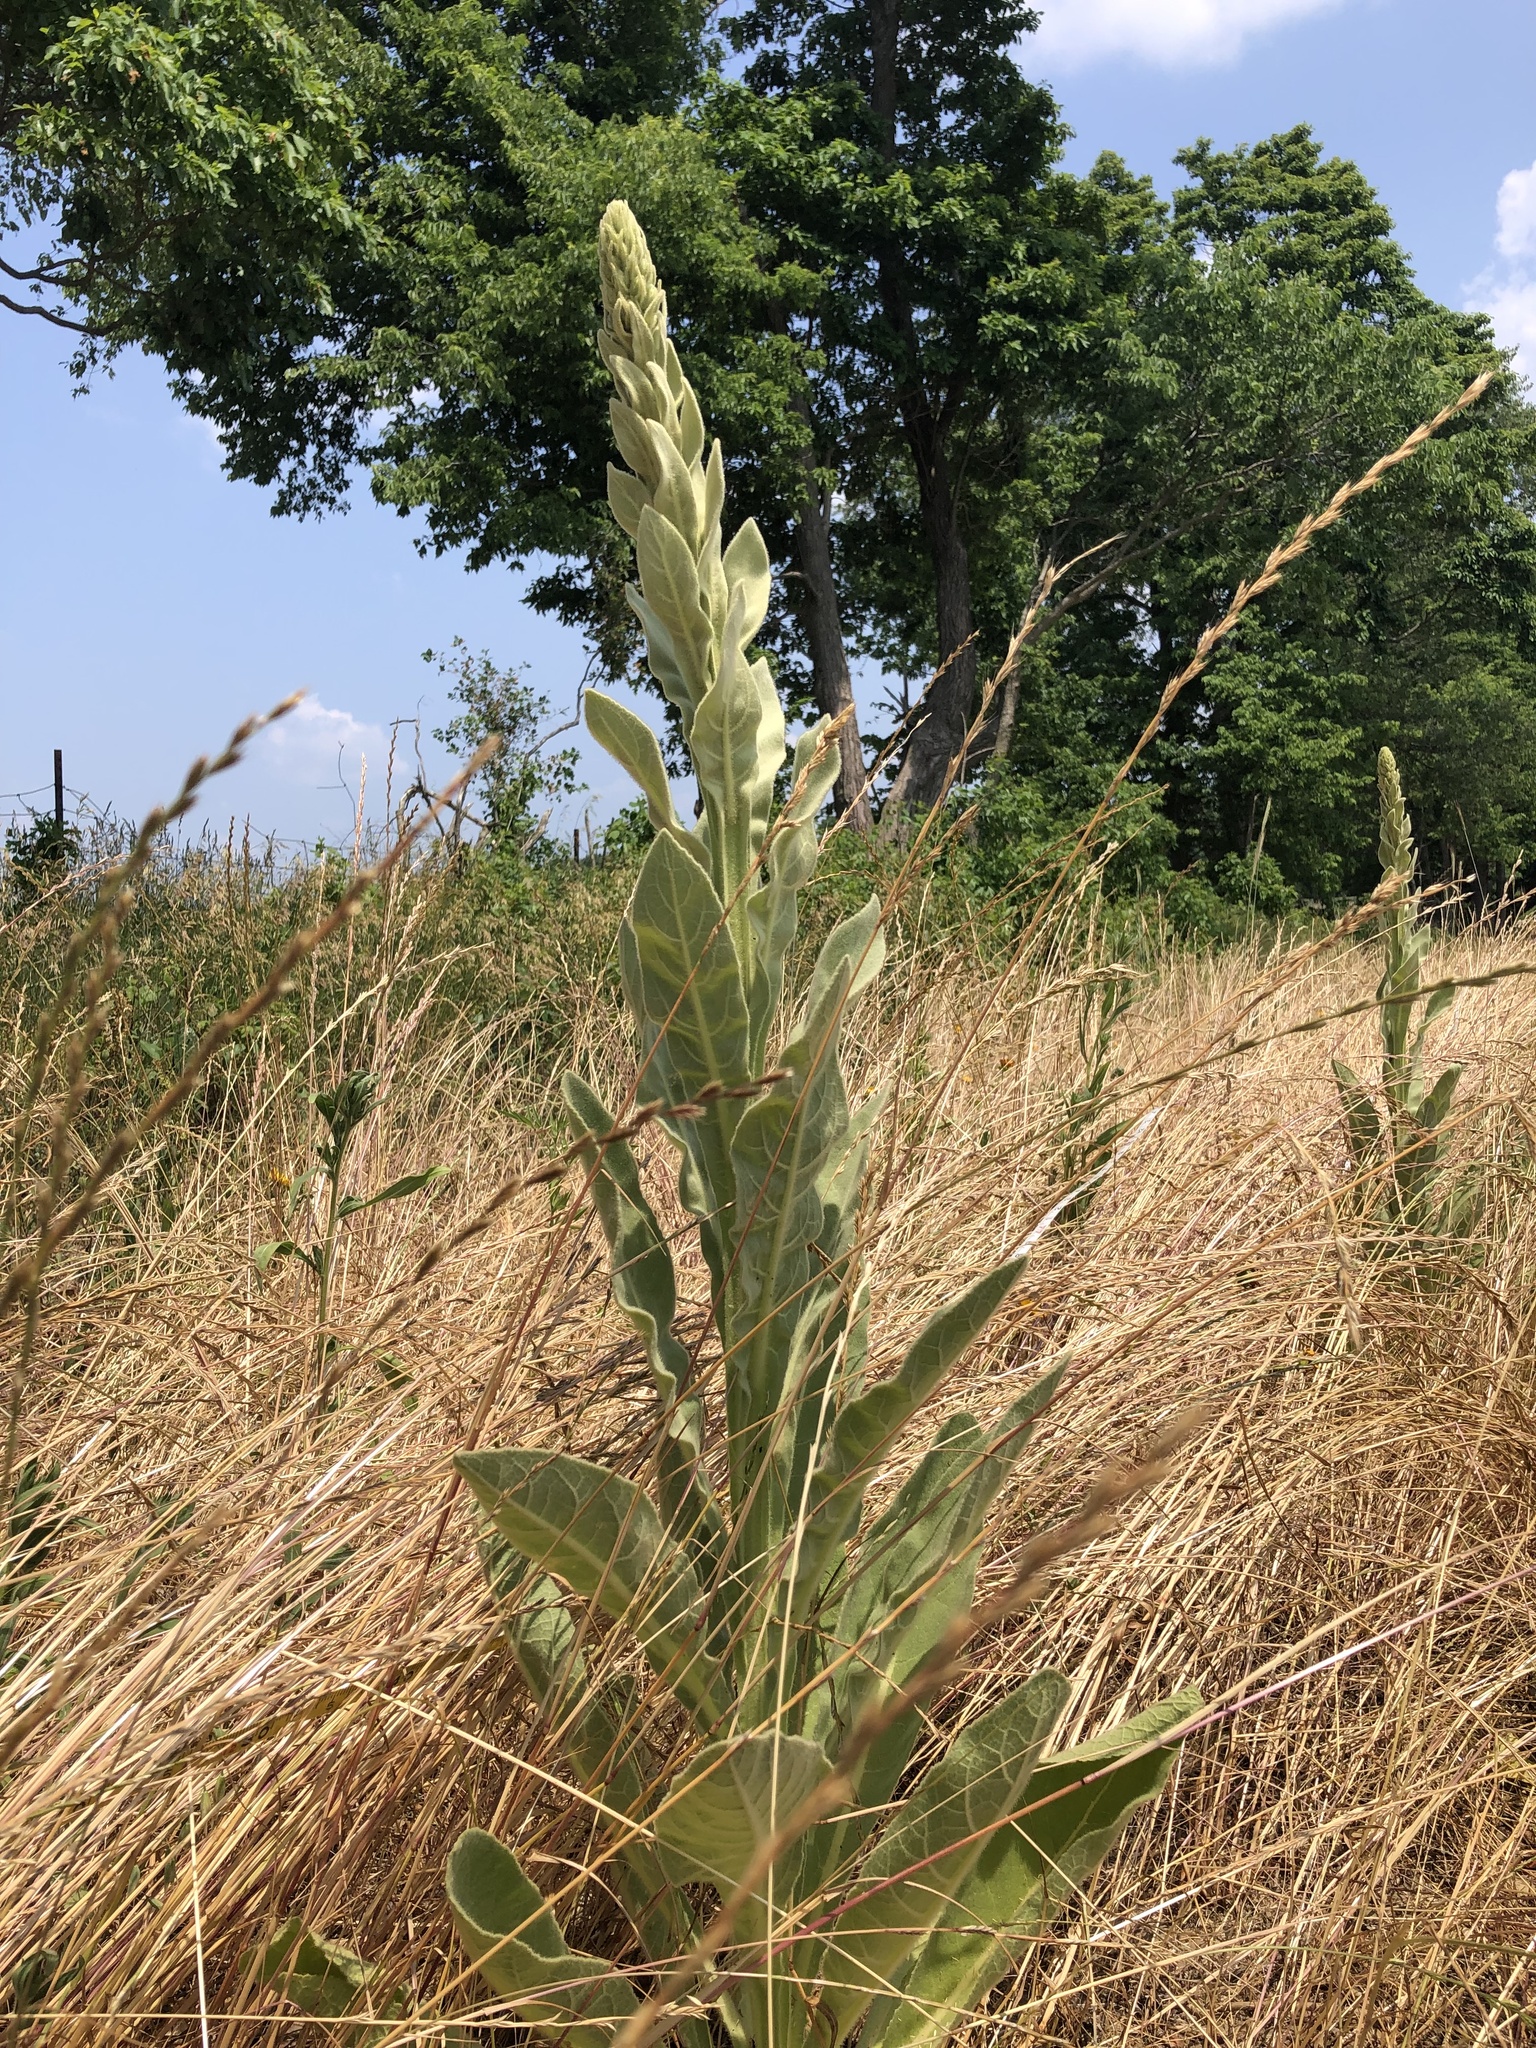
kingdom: Plantae
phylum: Tracheophyta
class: Magnoliopsida
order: Lamiales
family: Scrophulariaceae
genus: Verbascum
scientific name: Verbascum thapsus
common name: Common mullein
